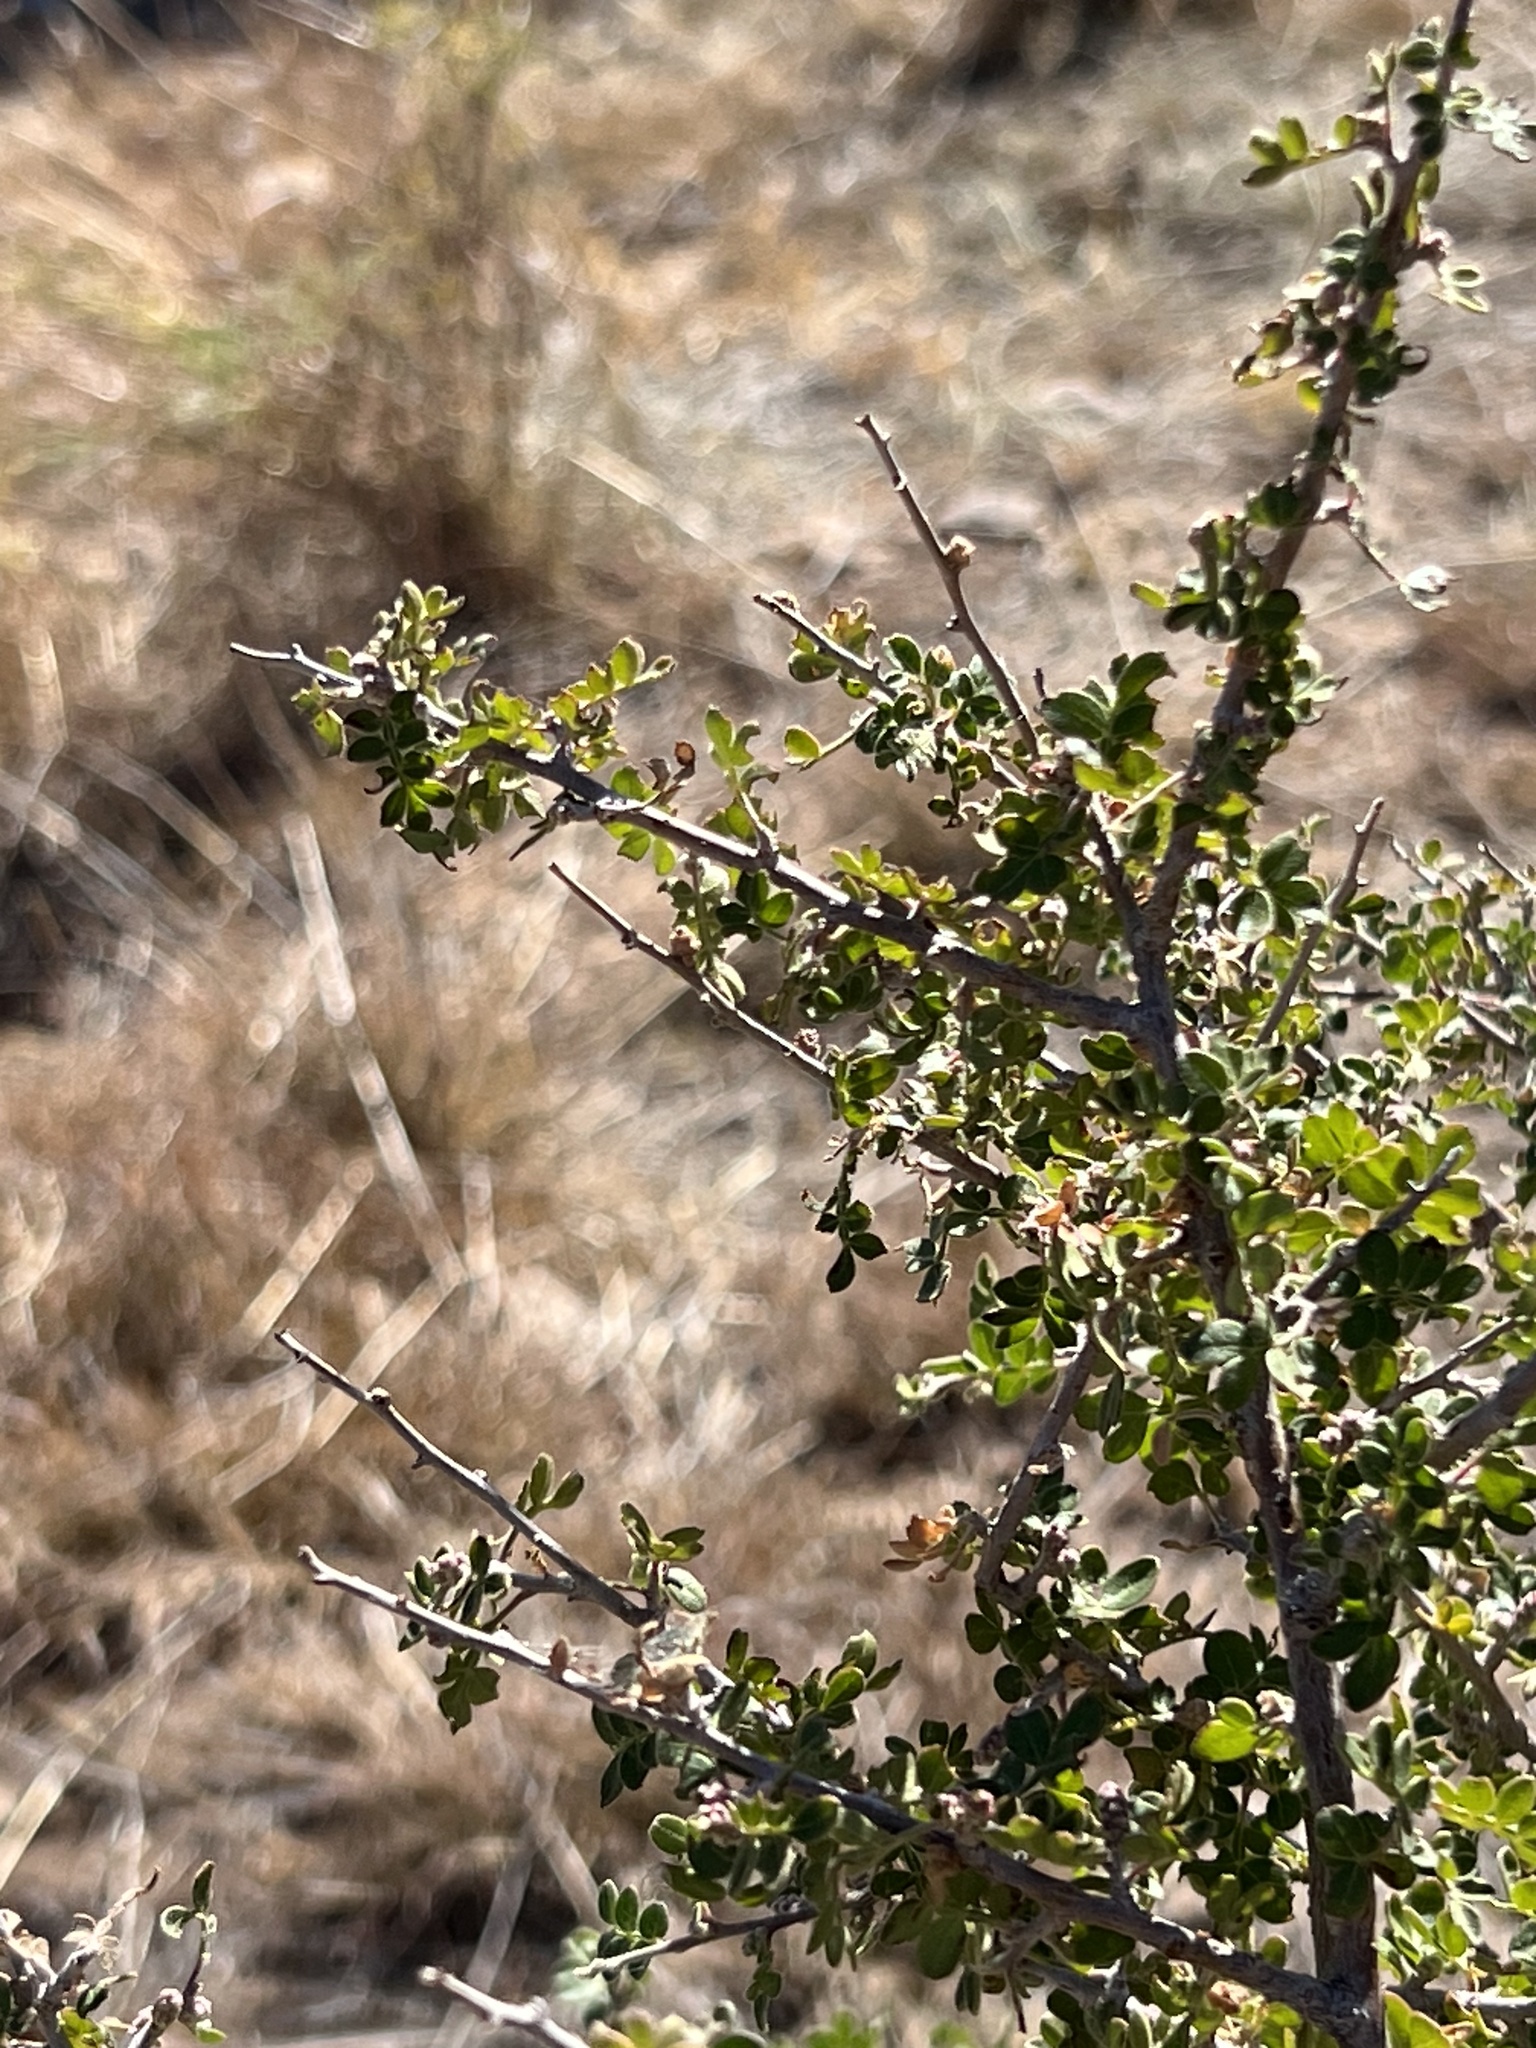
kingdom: Plantae
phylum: Tracheophyta
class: Magnoliopsida
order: Sapindales
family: Anacardiaceae
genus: Rhus
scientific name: Rhus microphylla
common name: Desert sumac
